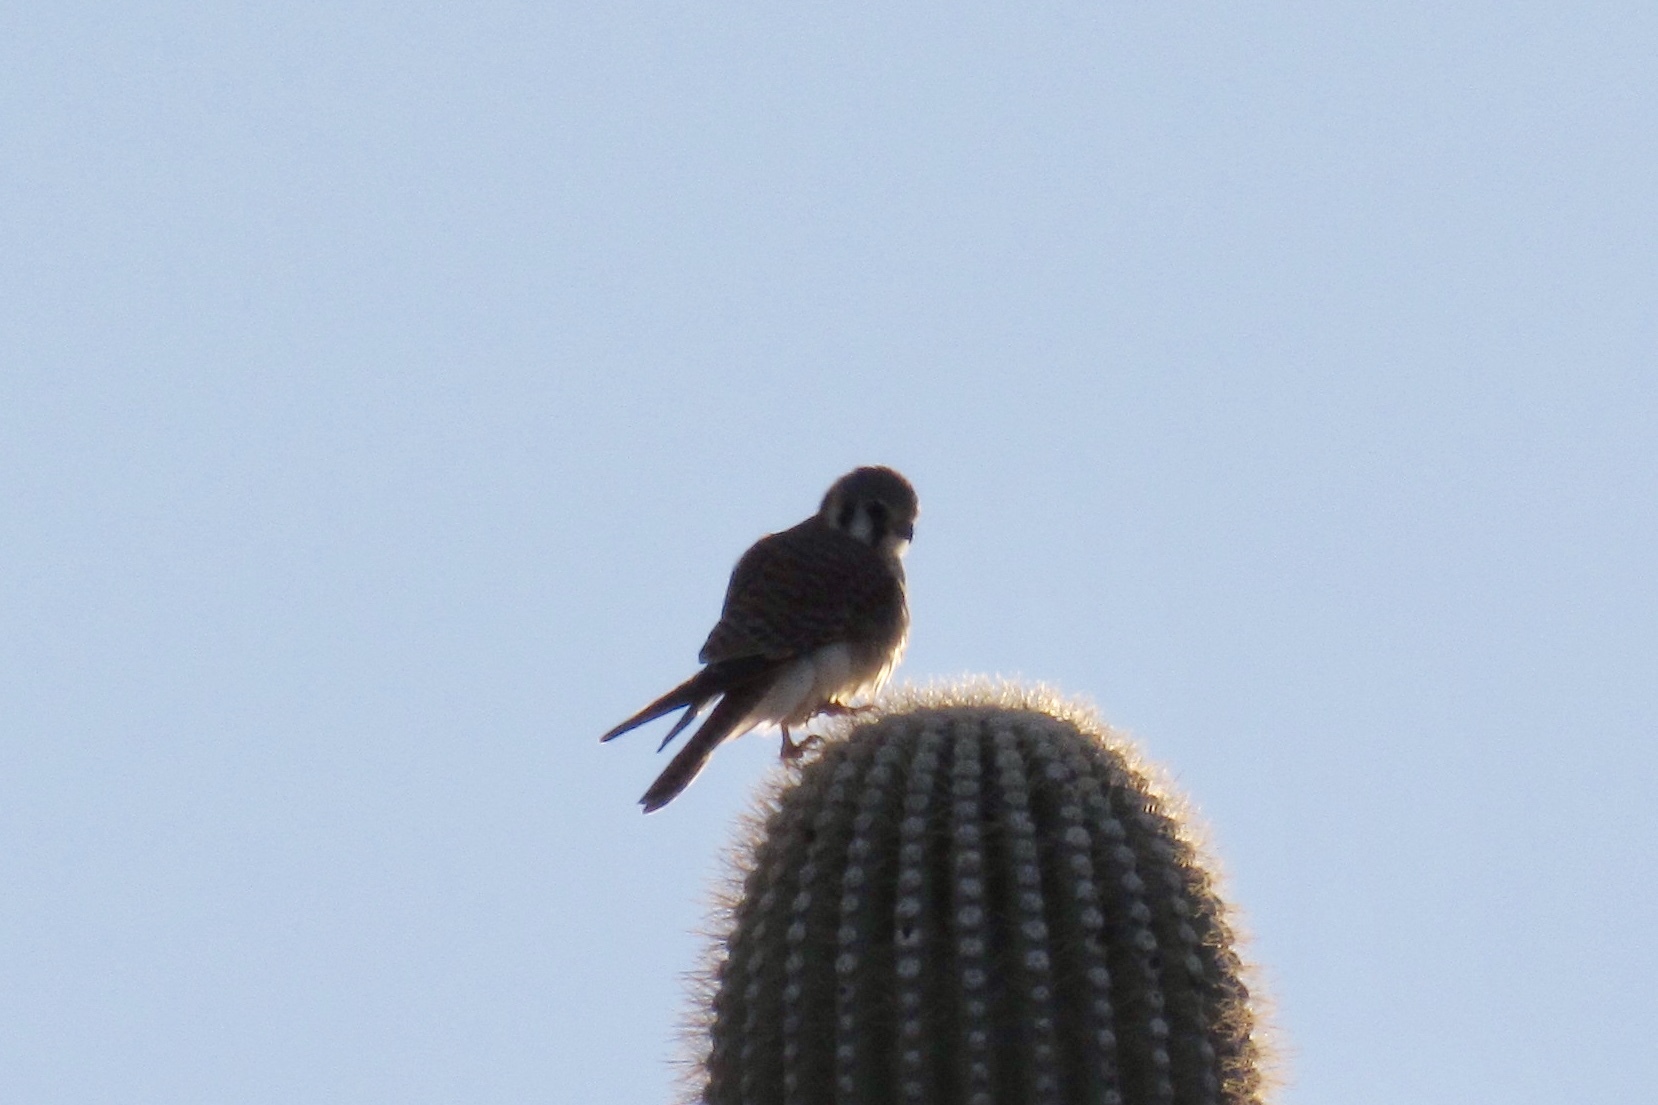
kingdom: Animalia
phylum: Chordata
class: Aves
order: Falconiformes
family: Falconidae
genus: Falco
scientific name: Falco sparverius
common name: American kestrel
